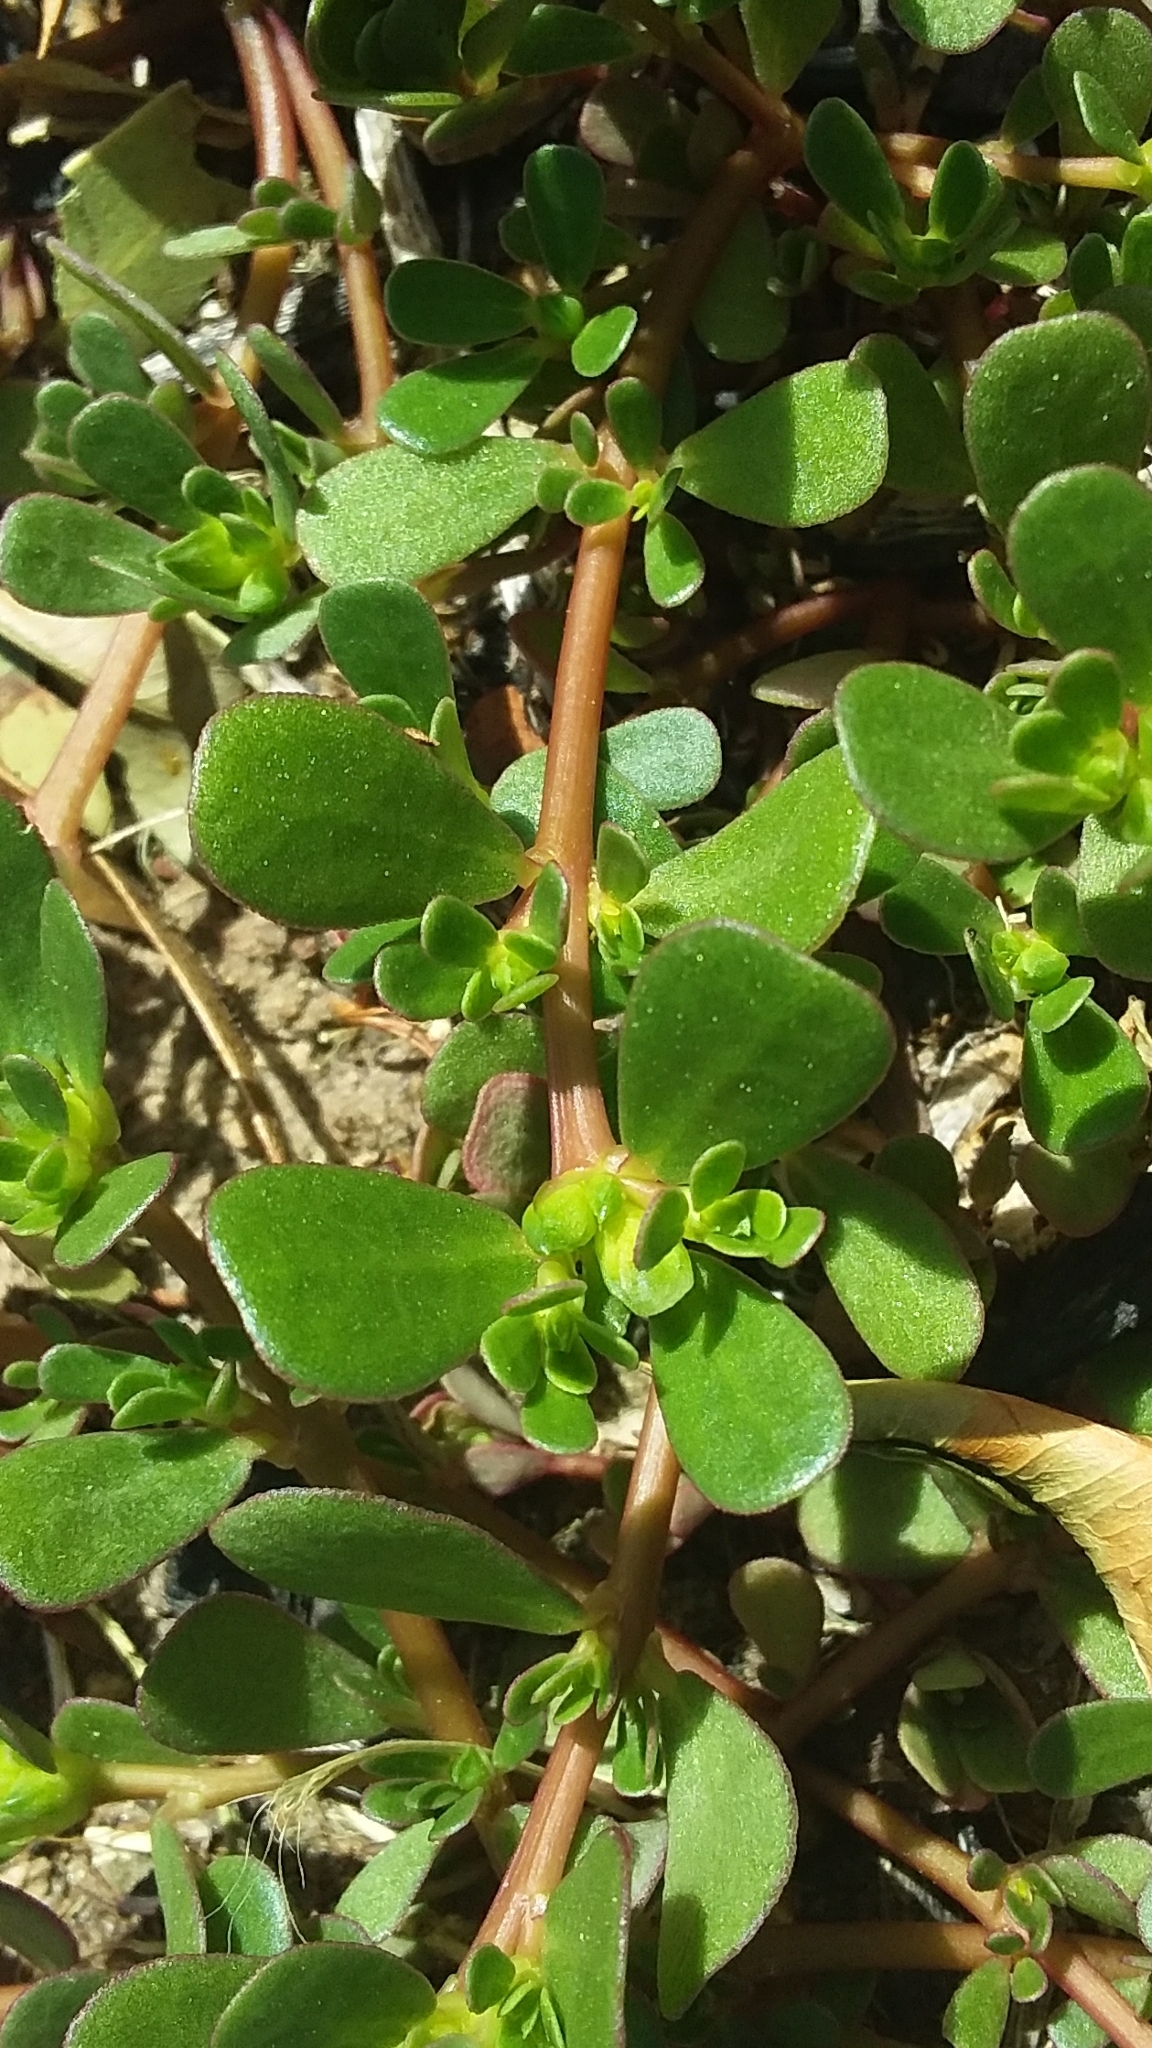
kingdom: Plantae
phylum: Tracheophyta
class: Magnoliopsida
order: Caryophyllales
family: Portulacaceae
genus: Portulaca
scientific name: Portulaca oleracea
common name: Common purslane
